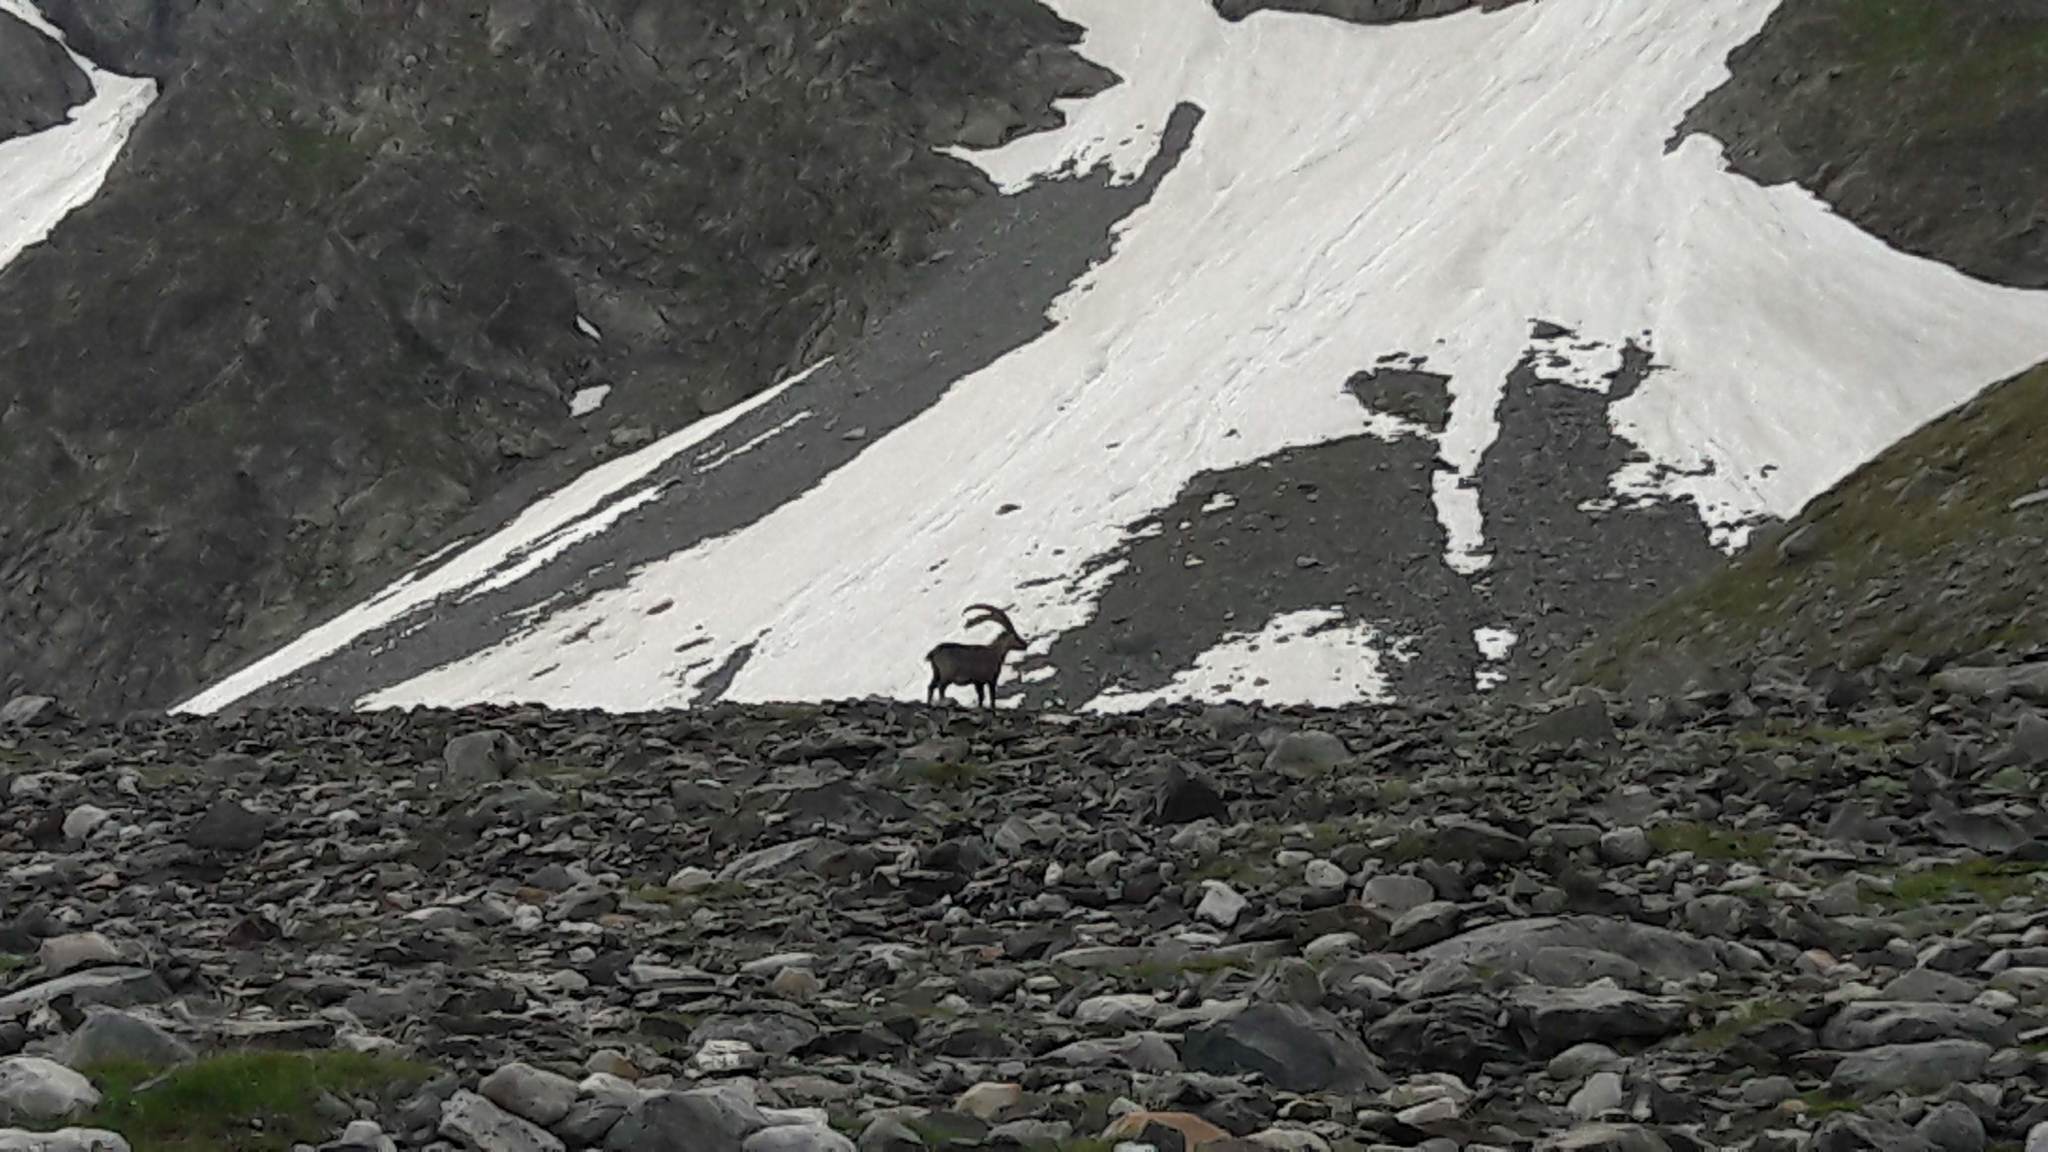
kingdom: Animalia
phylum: Chordata
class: Mammalia
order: Artiodactyla
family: Bovidae
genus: Capra
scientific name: Capra ibex
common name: Alpine ibex
